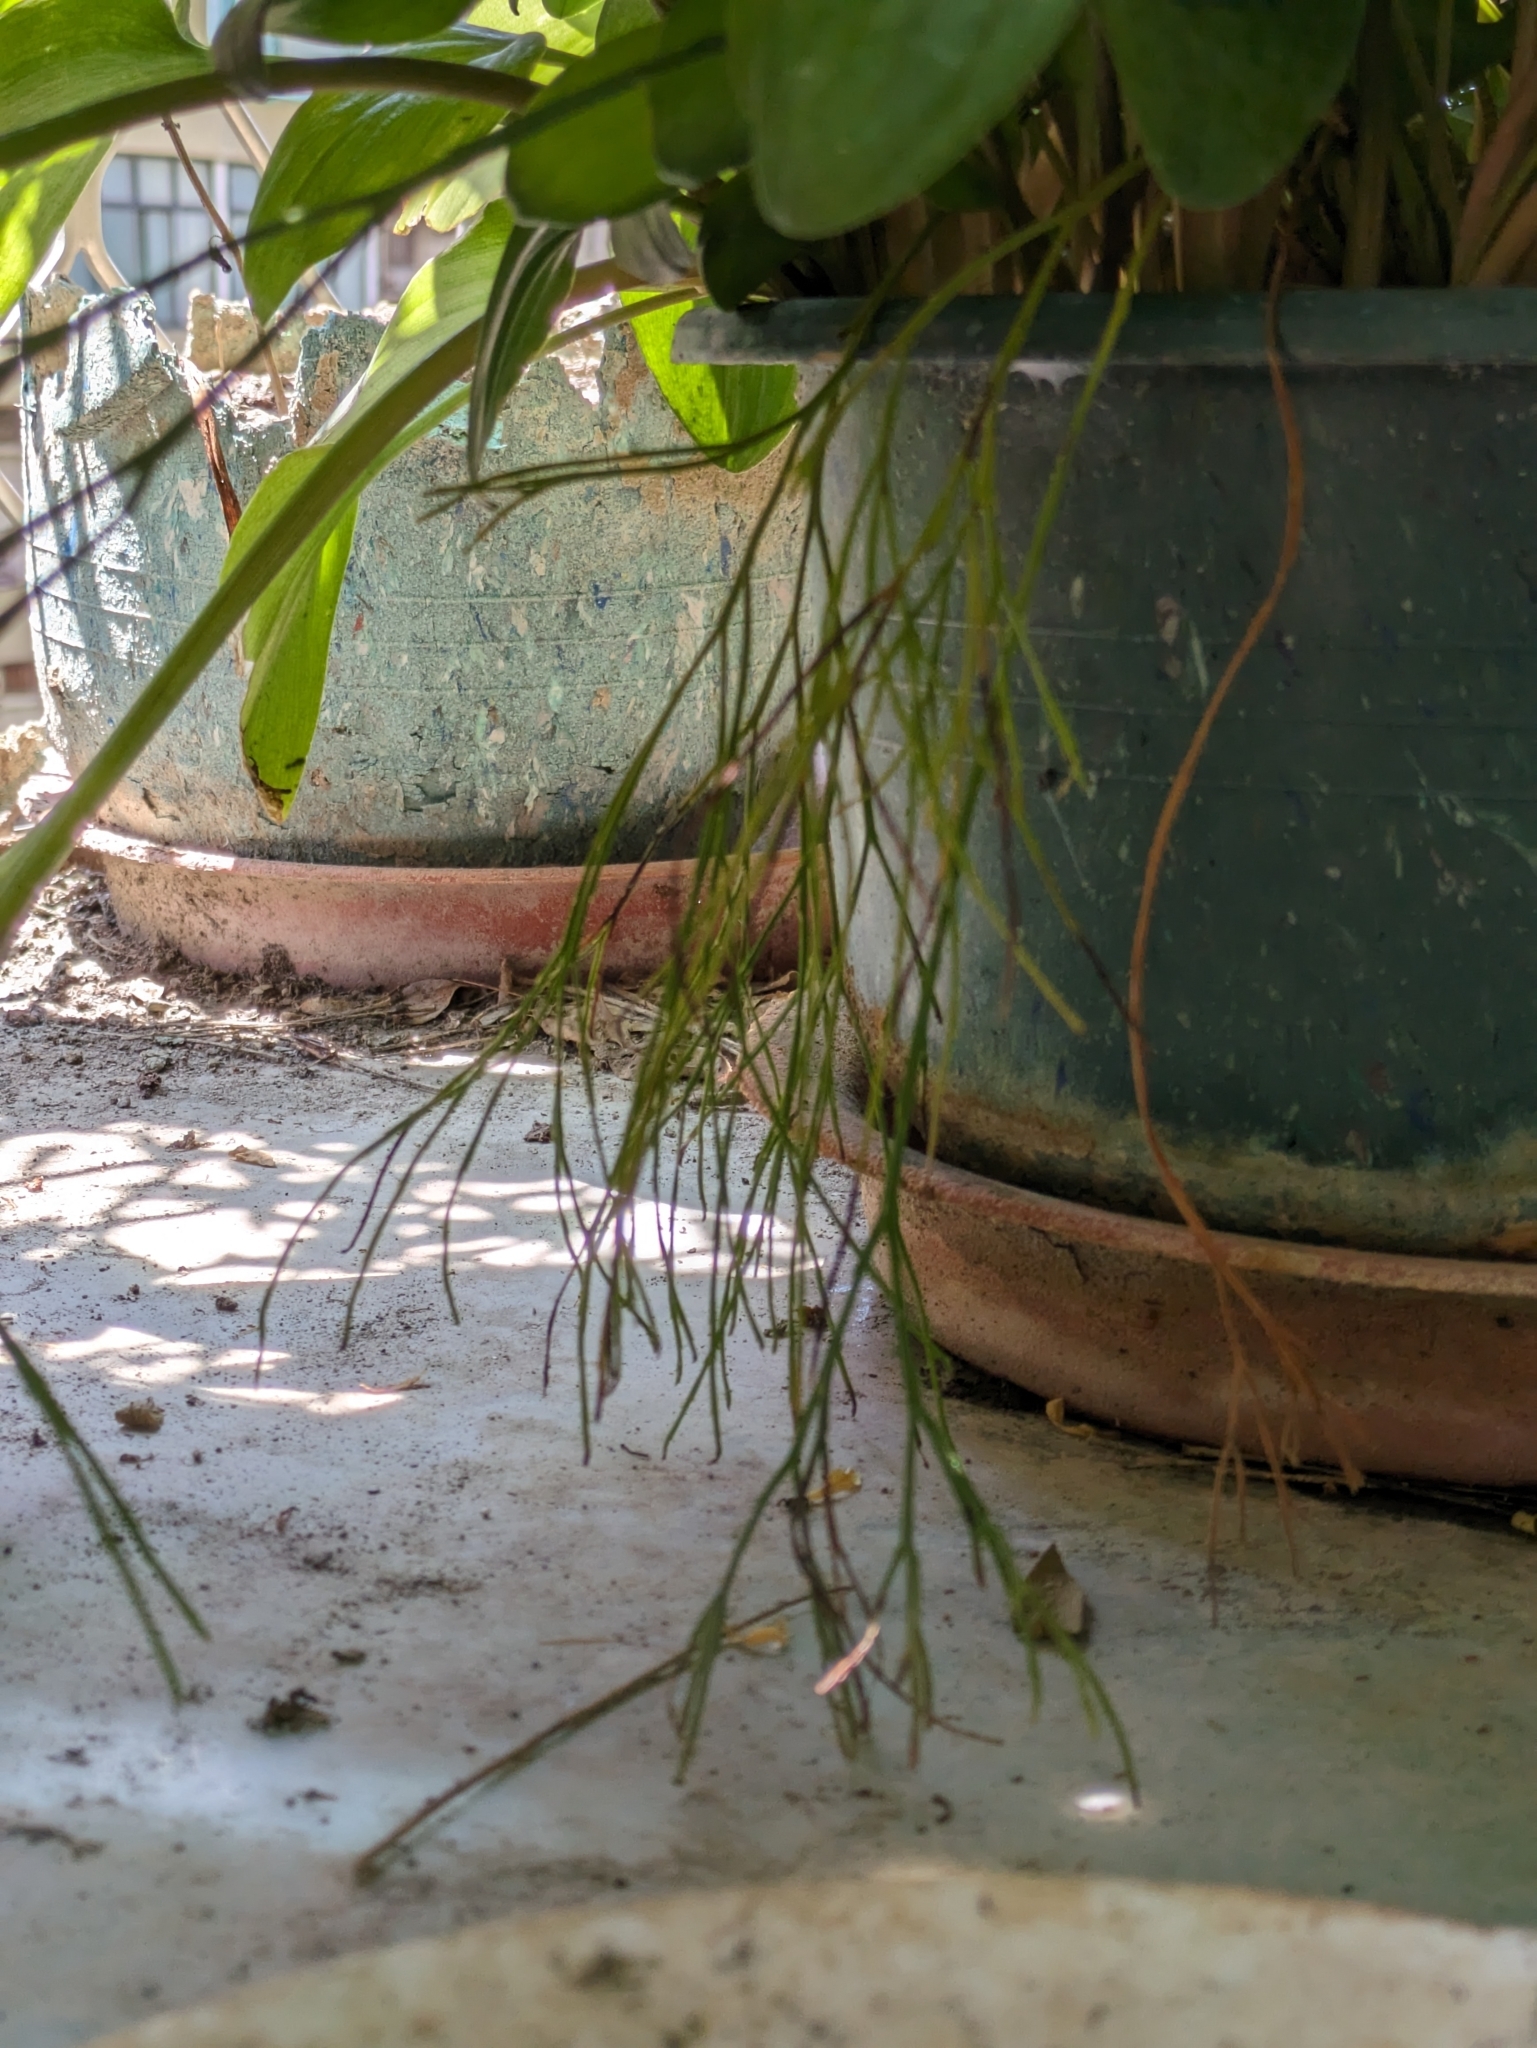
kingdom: Plantae
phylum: Tracheophyta
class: Polypodiopsida
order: Psilotales
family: Psilotaceae
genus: Psilotum
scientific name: Psilotum nudum
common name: Skeleton fork fern
